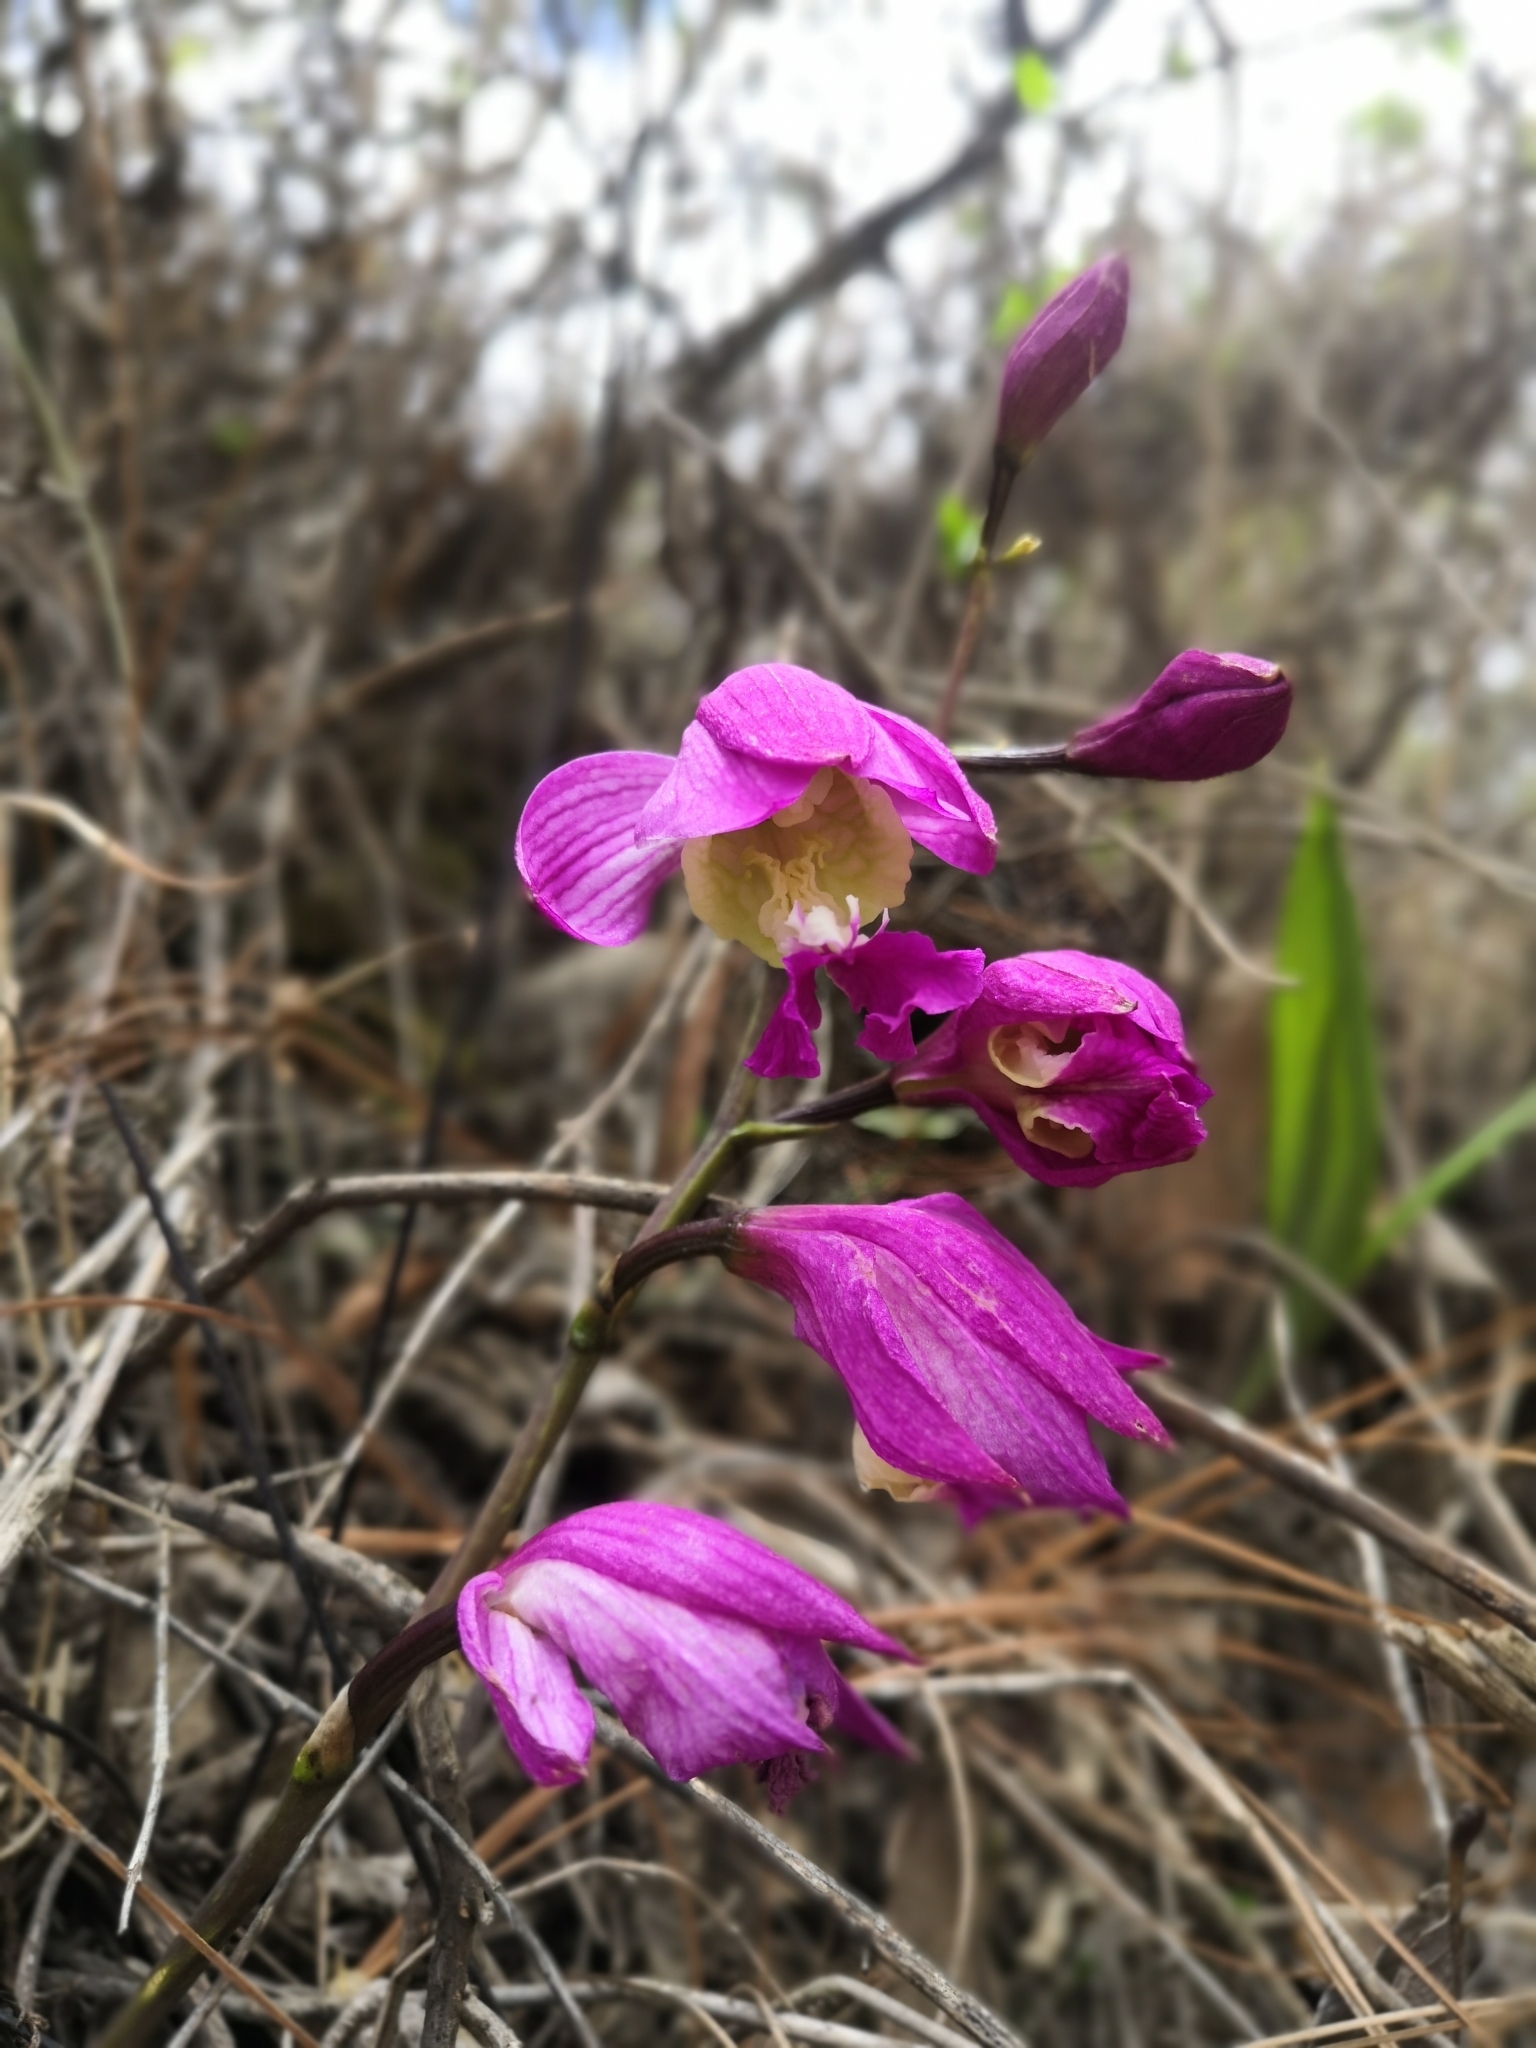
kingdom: Plantae
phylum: Tracheophyta
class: Liliopsida
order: Asparagales
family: Orchidaceae
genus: Bletia
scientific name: Bletia macristhmochila
